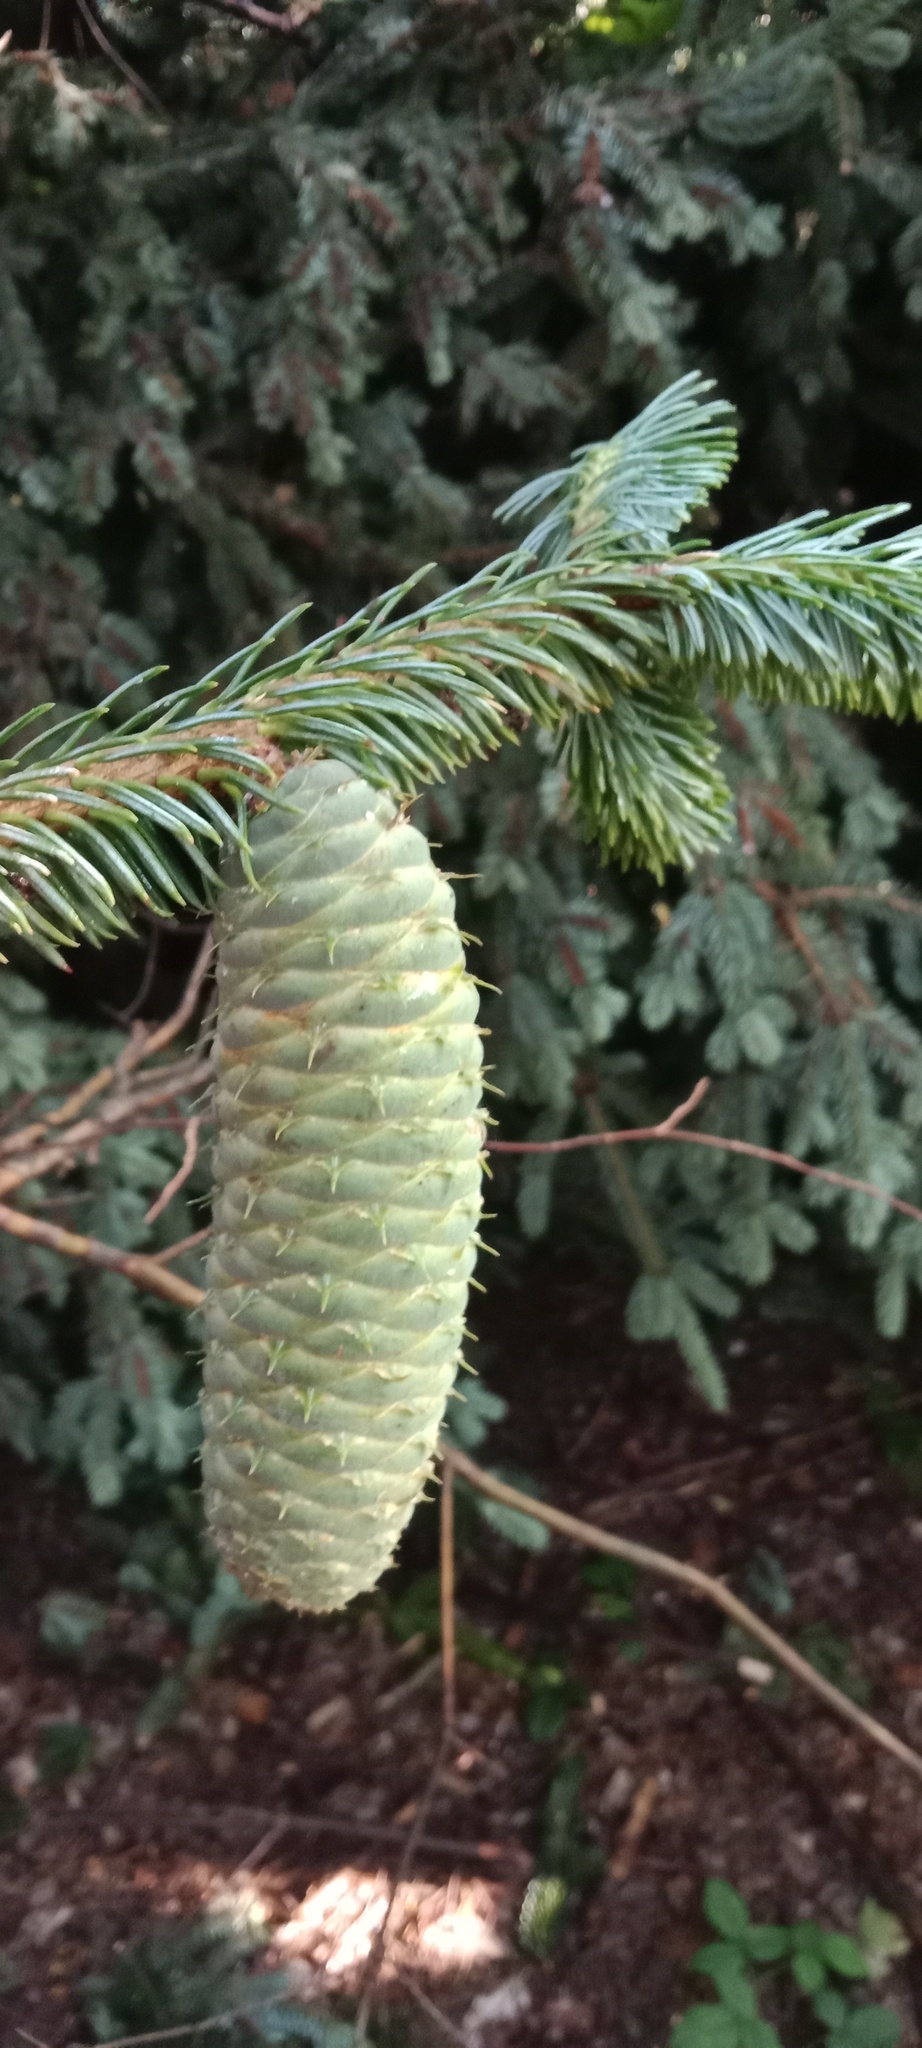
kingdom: Plantae
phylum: Tracheophyta
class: Pinopsida
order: Pinales
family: Pinaceae
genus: Picea
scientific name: Picea abies
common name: Norway spruce
